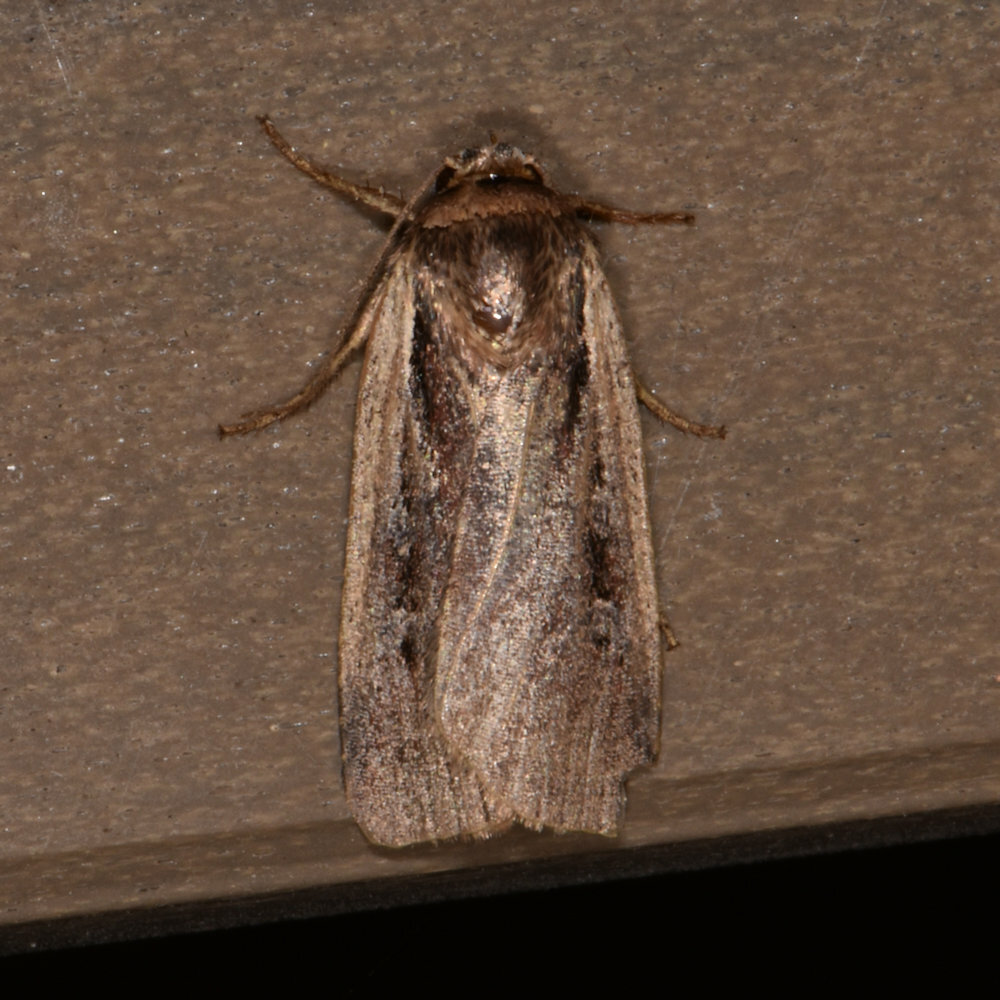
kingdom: Animalia
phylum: Arthropoda
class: Insecta
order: Lepidoptera
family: Noctuidae
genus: Ochropleura
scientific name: Ochropleura implecta
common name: Flame-shouldered dart
